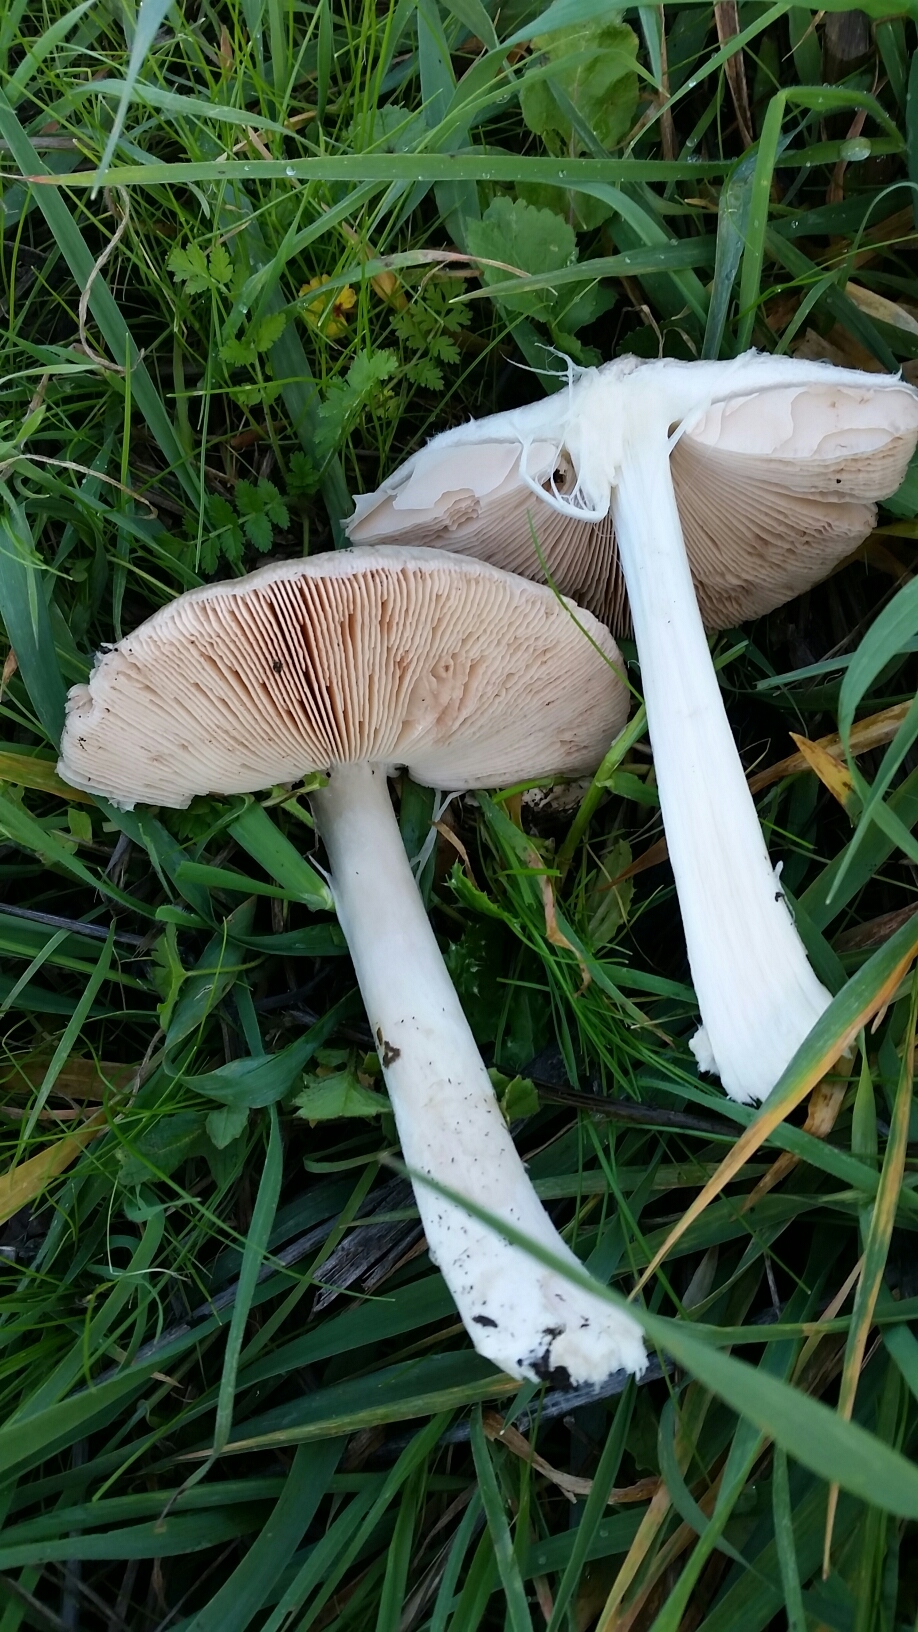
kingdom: Fungi
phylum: Basidiomycota
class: Agaricomycetes
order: Agaricales
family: Pluteaceae
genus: Volvopluteus
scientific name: Volvopluteus gloiocephalus
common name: Stubble rosegill
